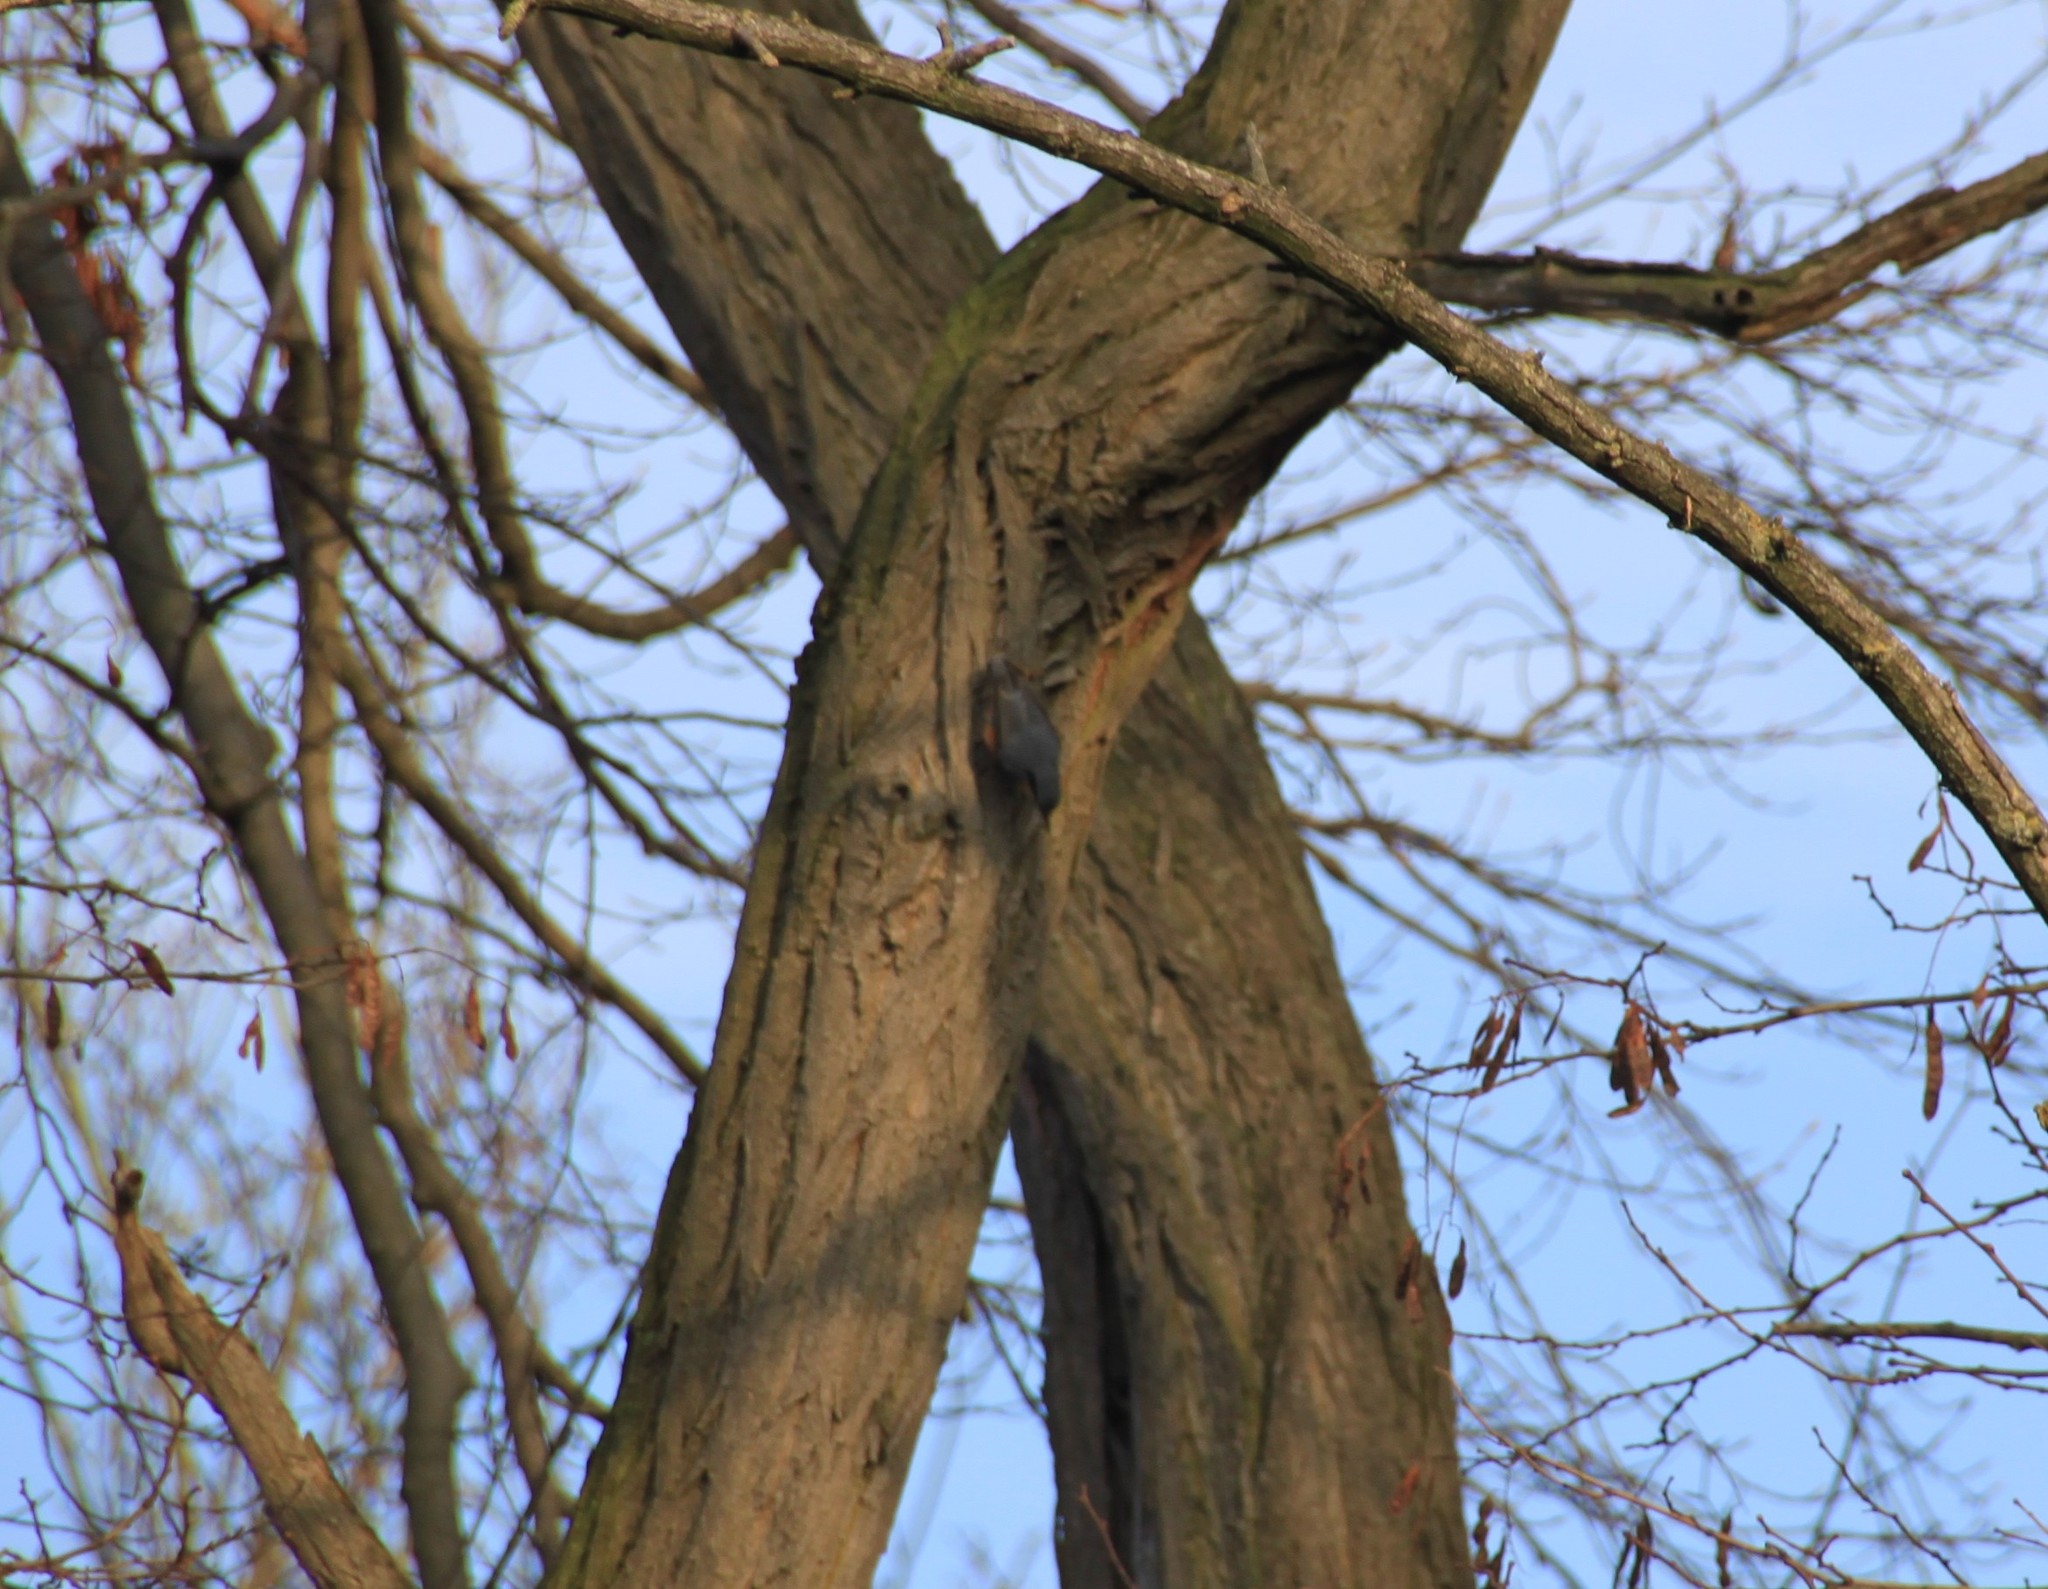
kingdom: Animalia
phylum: Chordata
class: Aves
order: Passeriformes
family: Sittidae
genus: Sitta
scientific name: Sitta europaea
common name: Eurasian nuthatch
